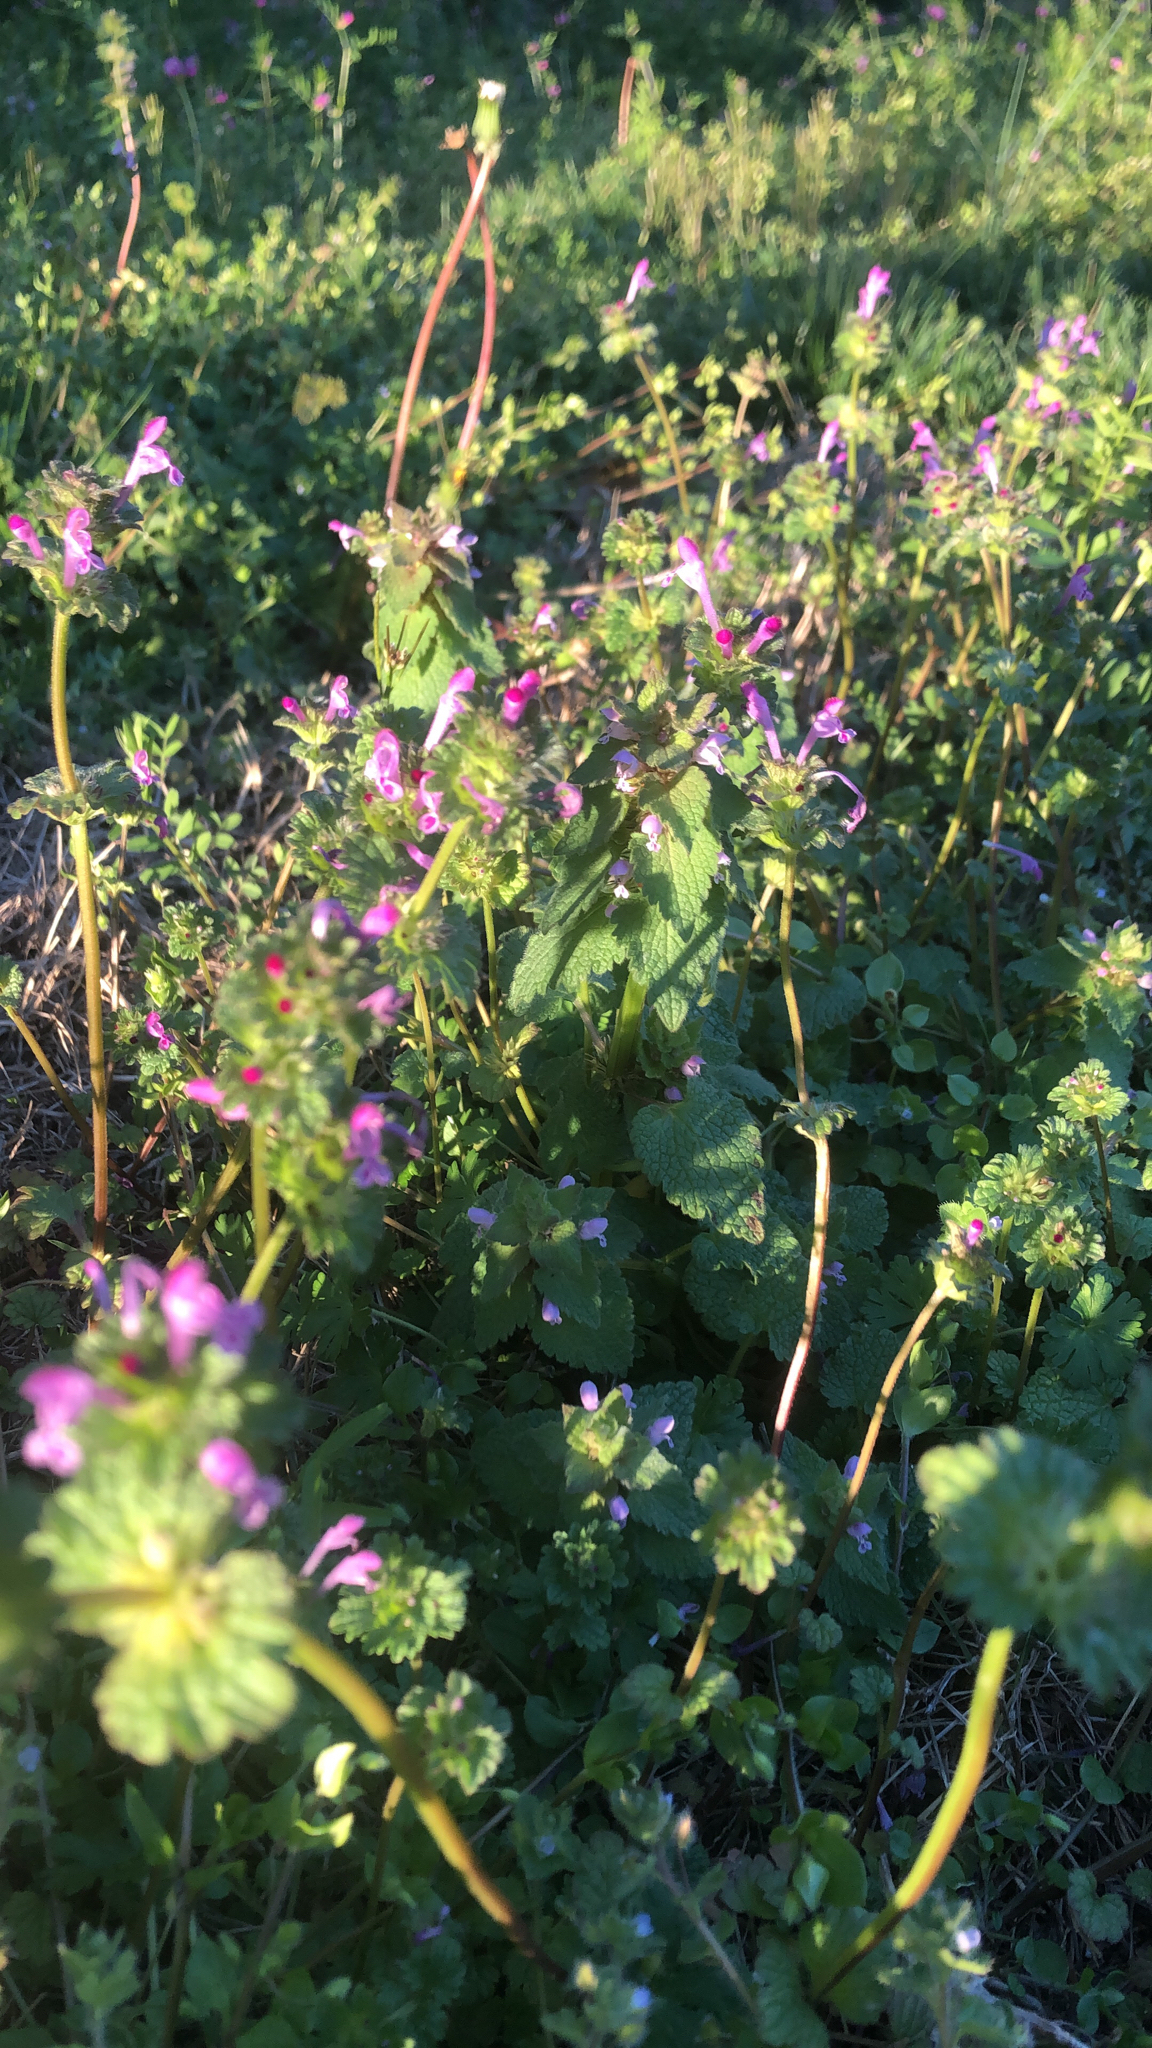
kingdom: Plantae
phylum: Tracheophyta
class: Magnoliopsida
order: Lamiales
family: Lamiaceae
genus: Lamium
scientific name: Lamium amplexicaule
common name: Henbit dead-nettle
